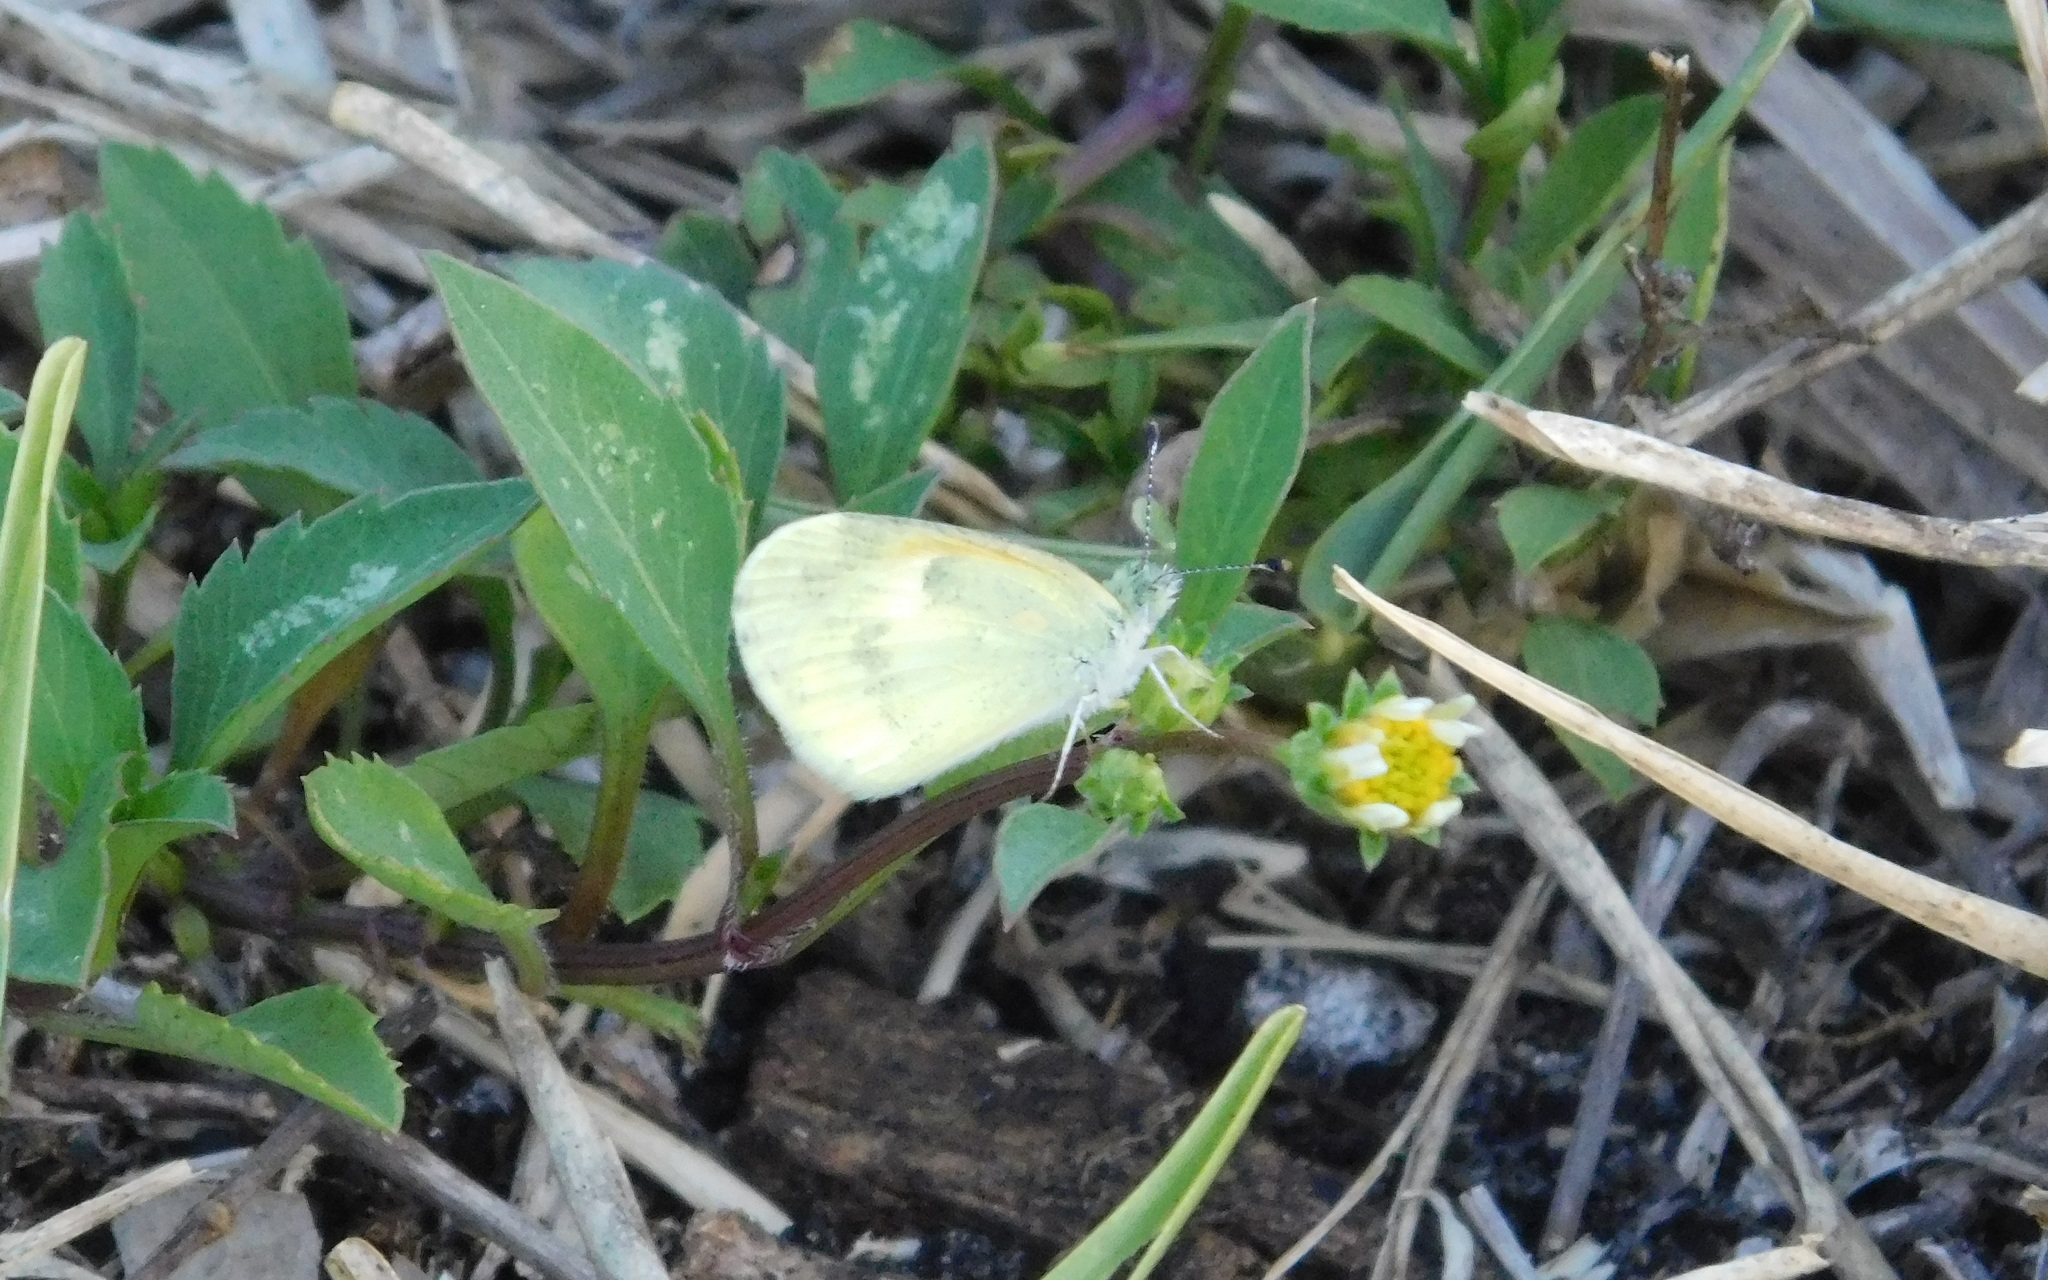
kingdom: Animalia
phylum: Arthropoda
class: Insecta
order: Lepidoptera
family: Pieridae
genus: Nathalis
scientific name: Nathalis iole
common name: Dainty sulphur
